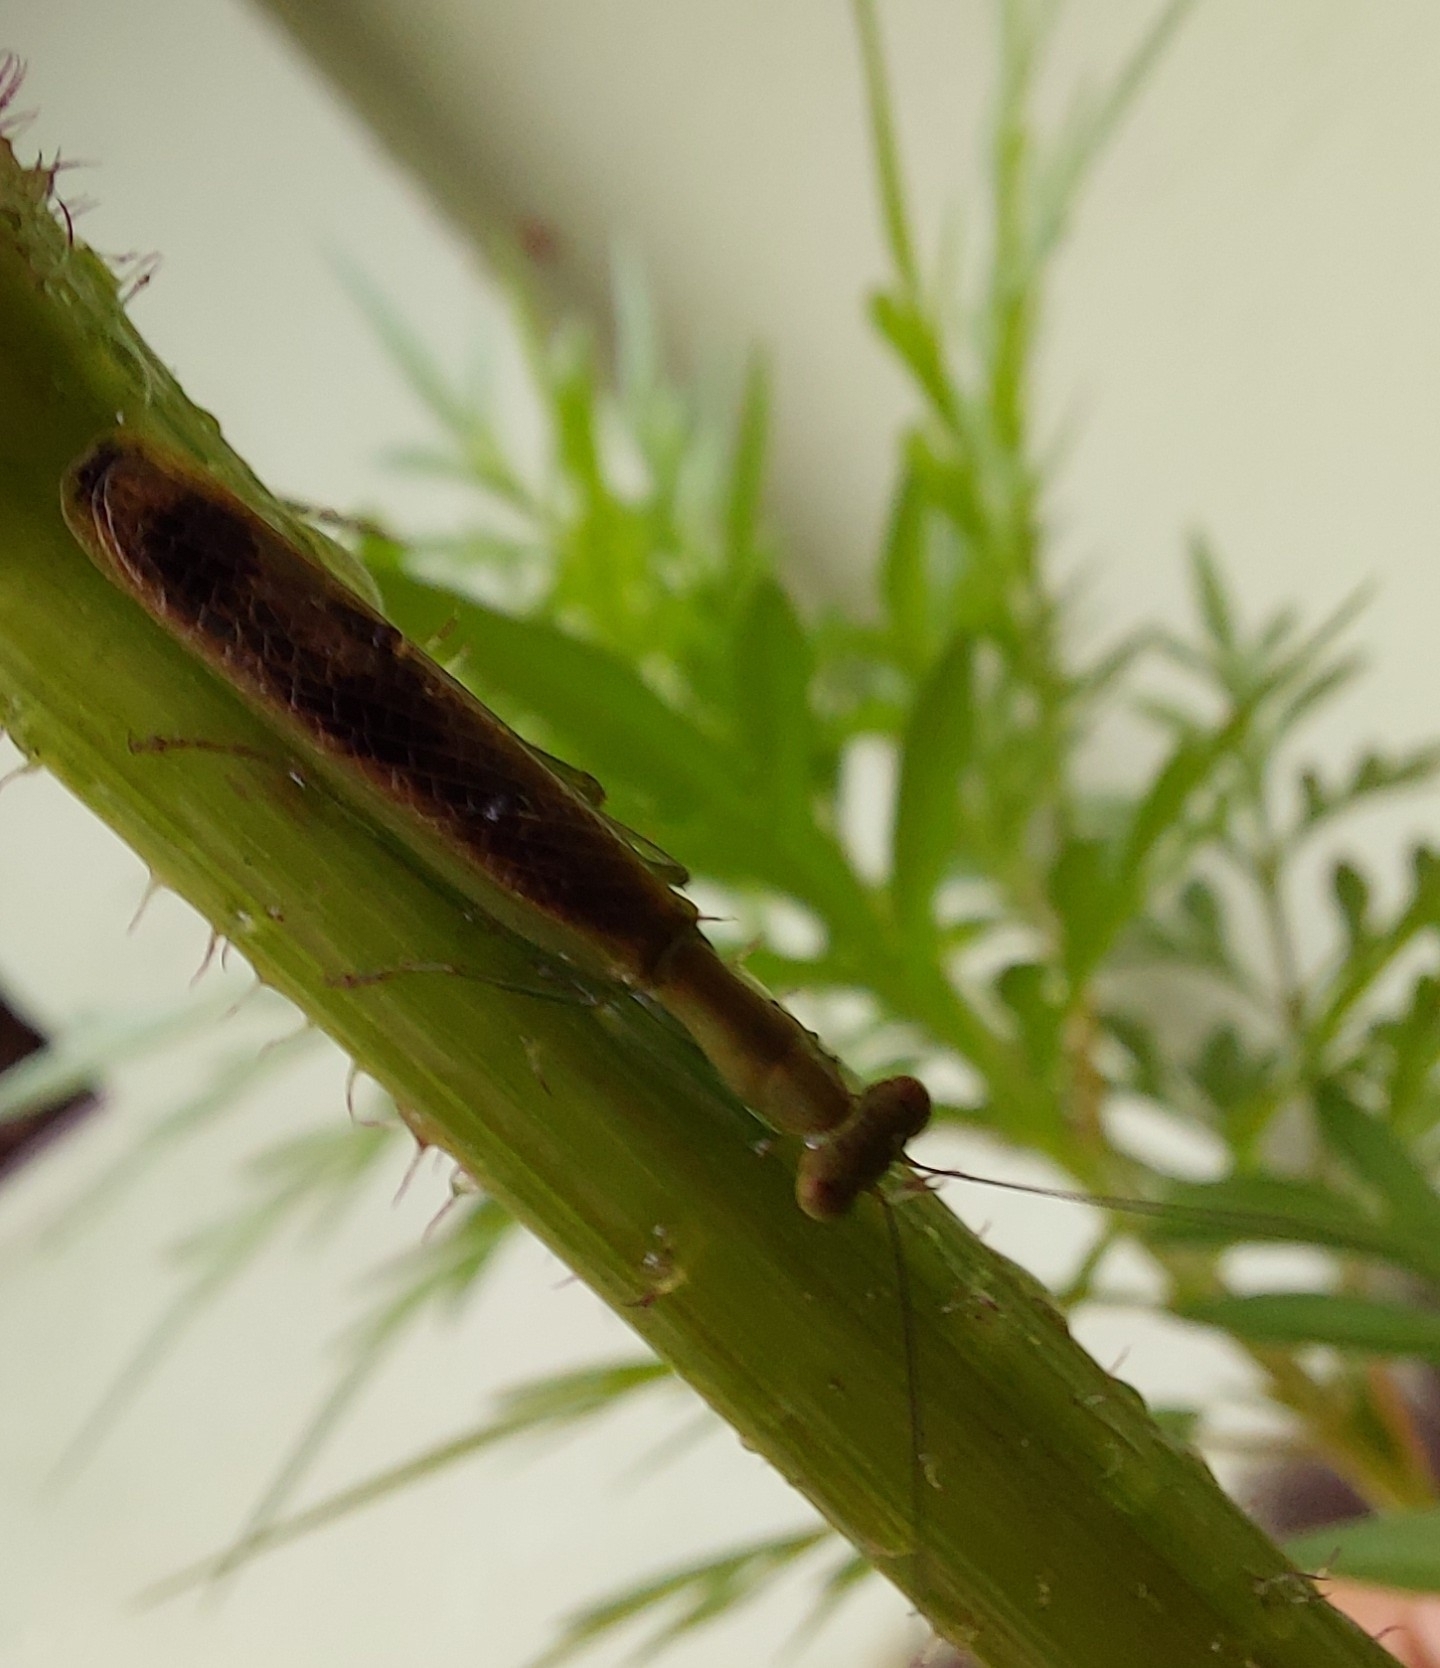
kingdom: Animalia
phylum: Arthropoda
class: Insecta
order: Mantodea
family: Acanthopidae
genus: Acontista
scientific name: Acontista concinna
